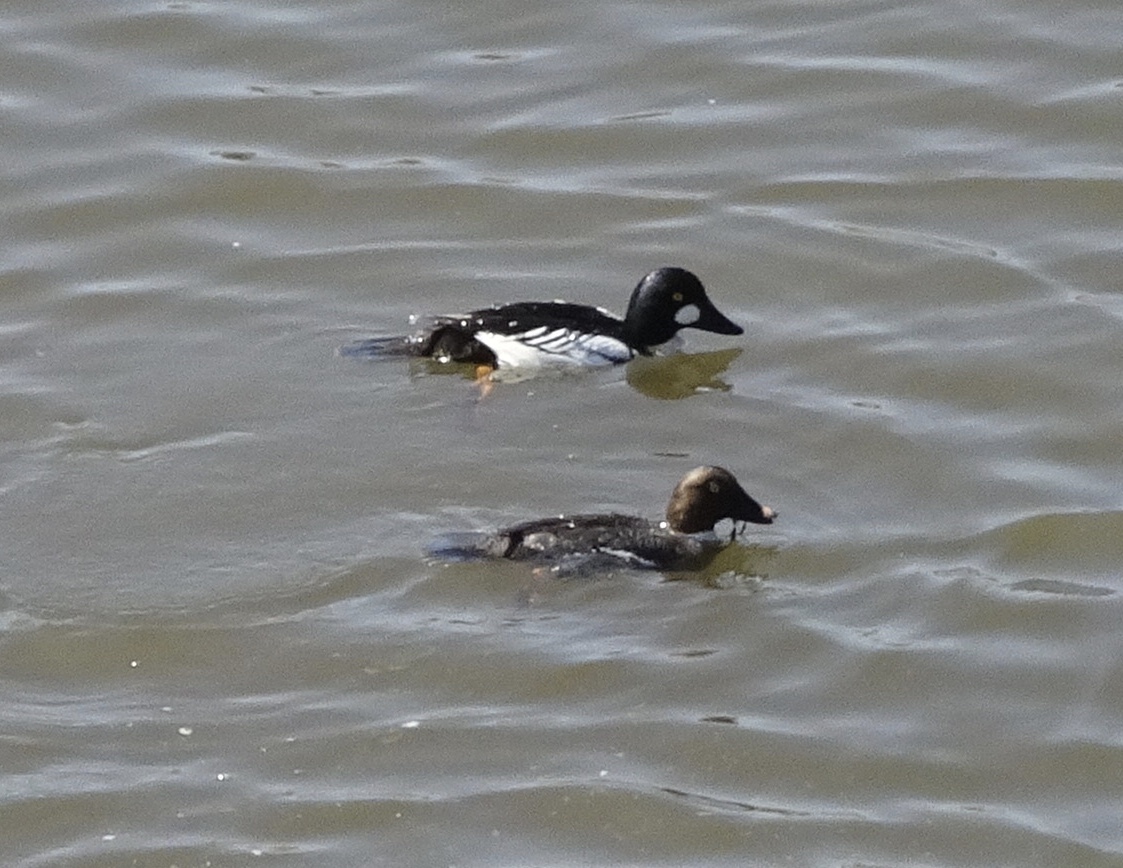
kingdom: Animalia
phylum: Chordata
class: Aves
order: Anseriformes
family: Anatidae
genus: Bucephala
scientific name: Bucephala clangula
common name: Common goldeneye
